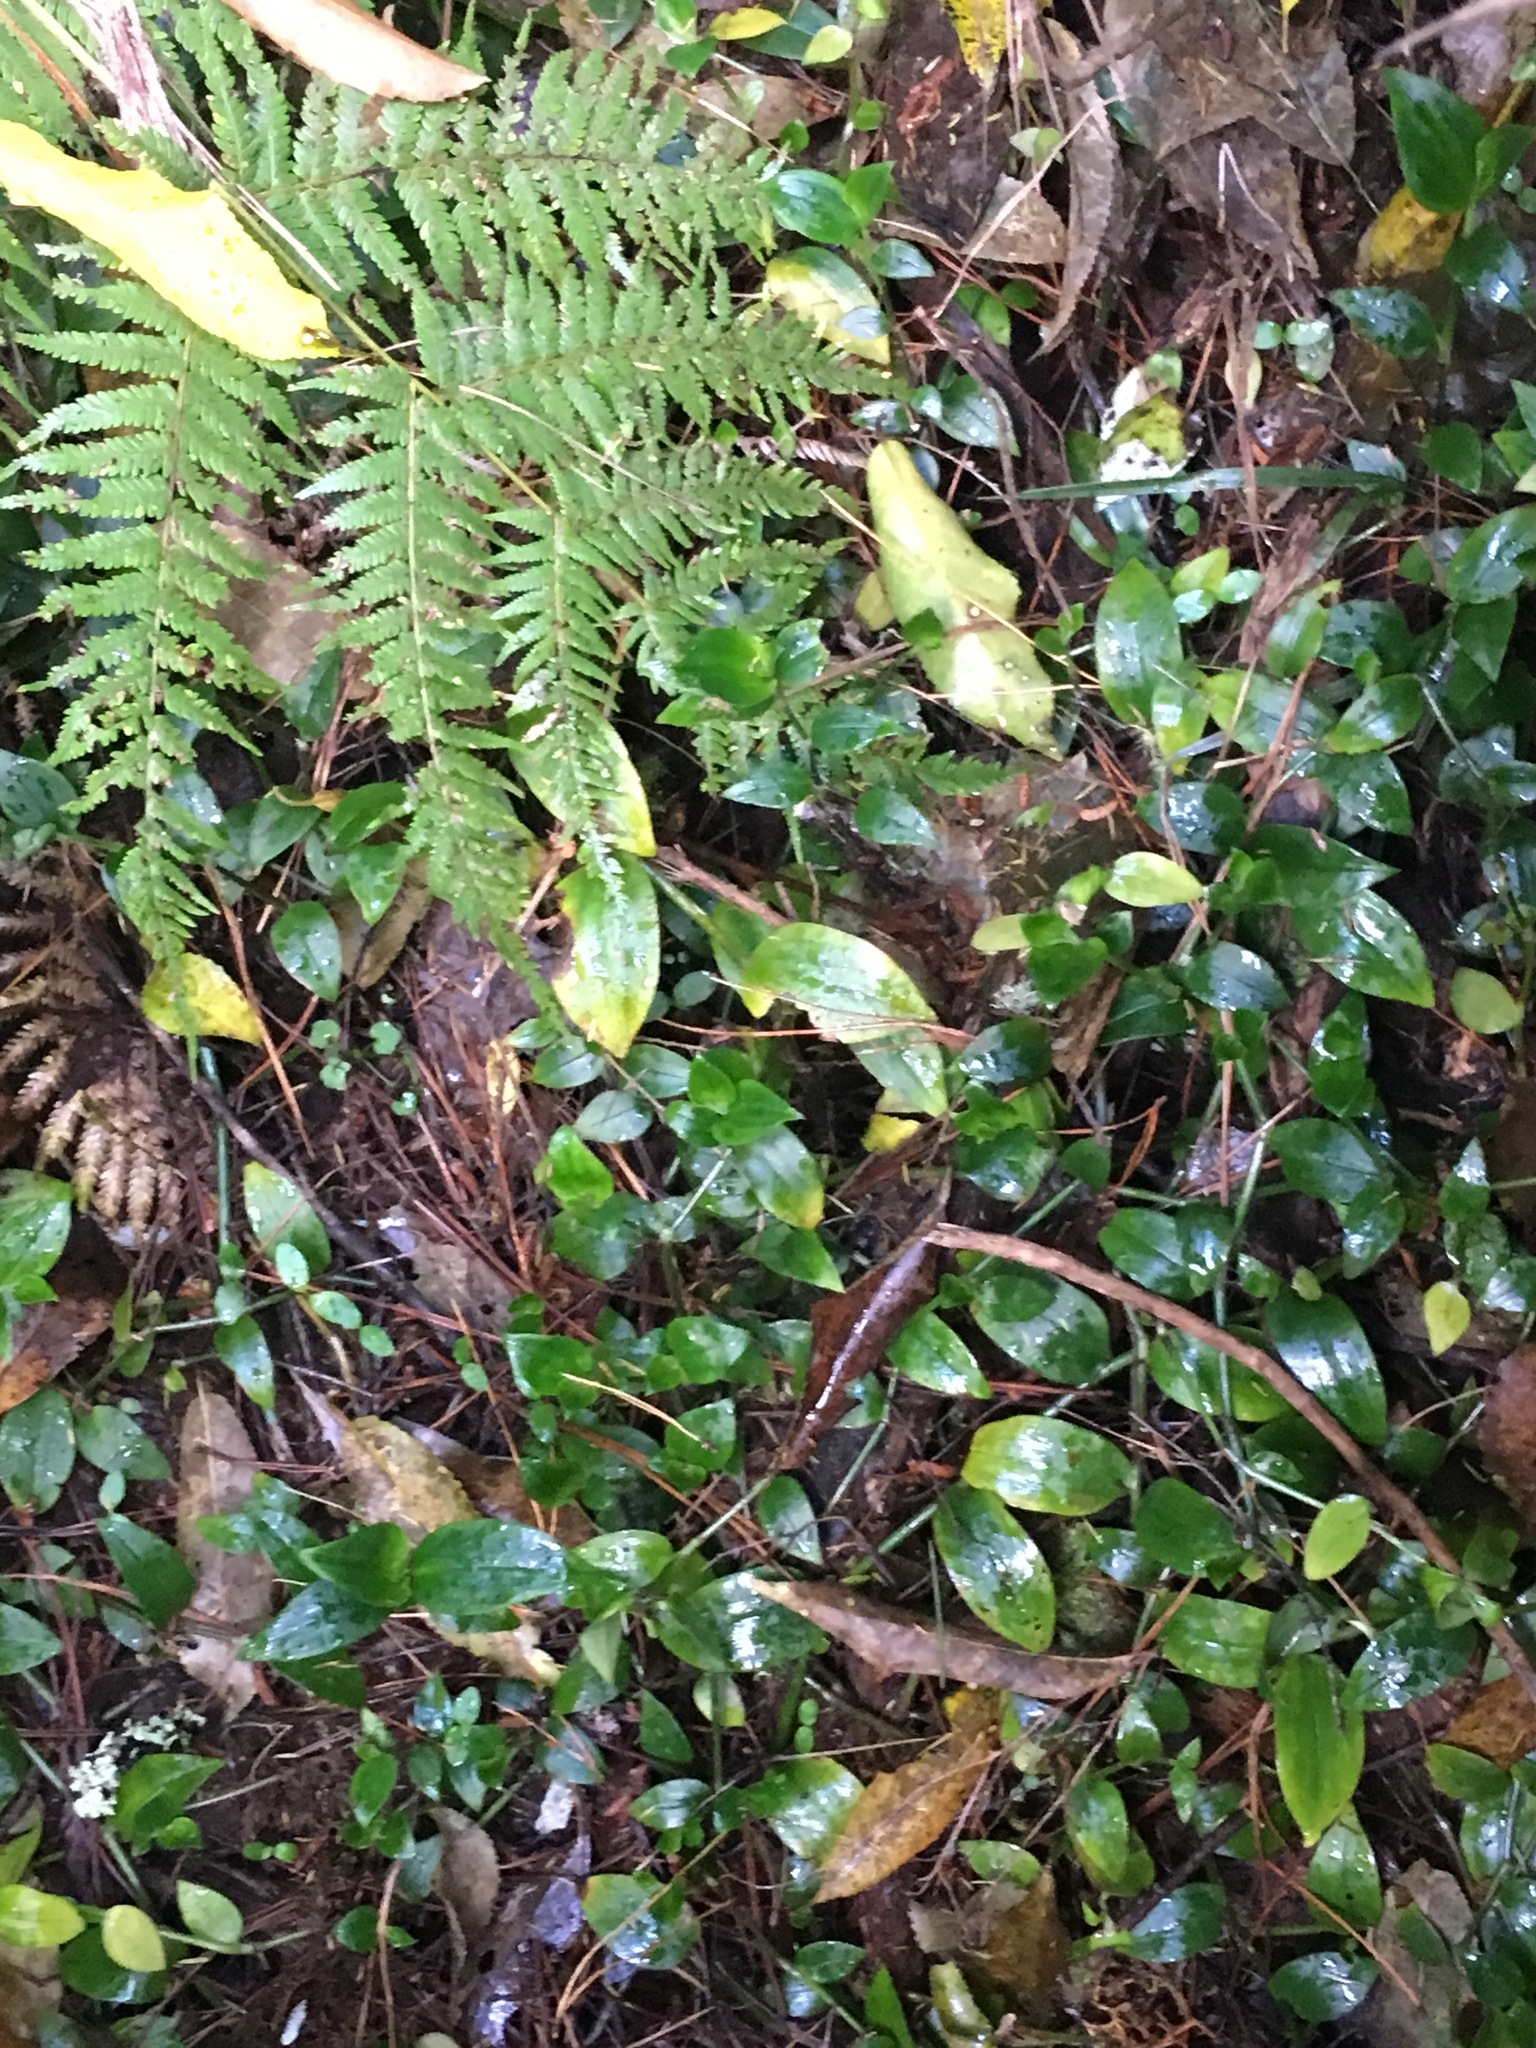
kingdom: Plantae
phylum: Tracheophyta
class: Liliopsida
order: Arecales
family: Arecaceae
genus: Rhopalostylis
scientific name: Rhopalostylis sapida
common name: Feather-duster palm
